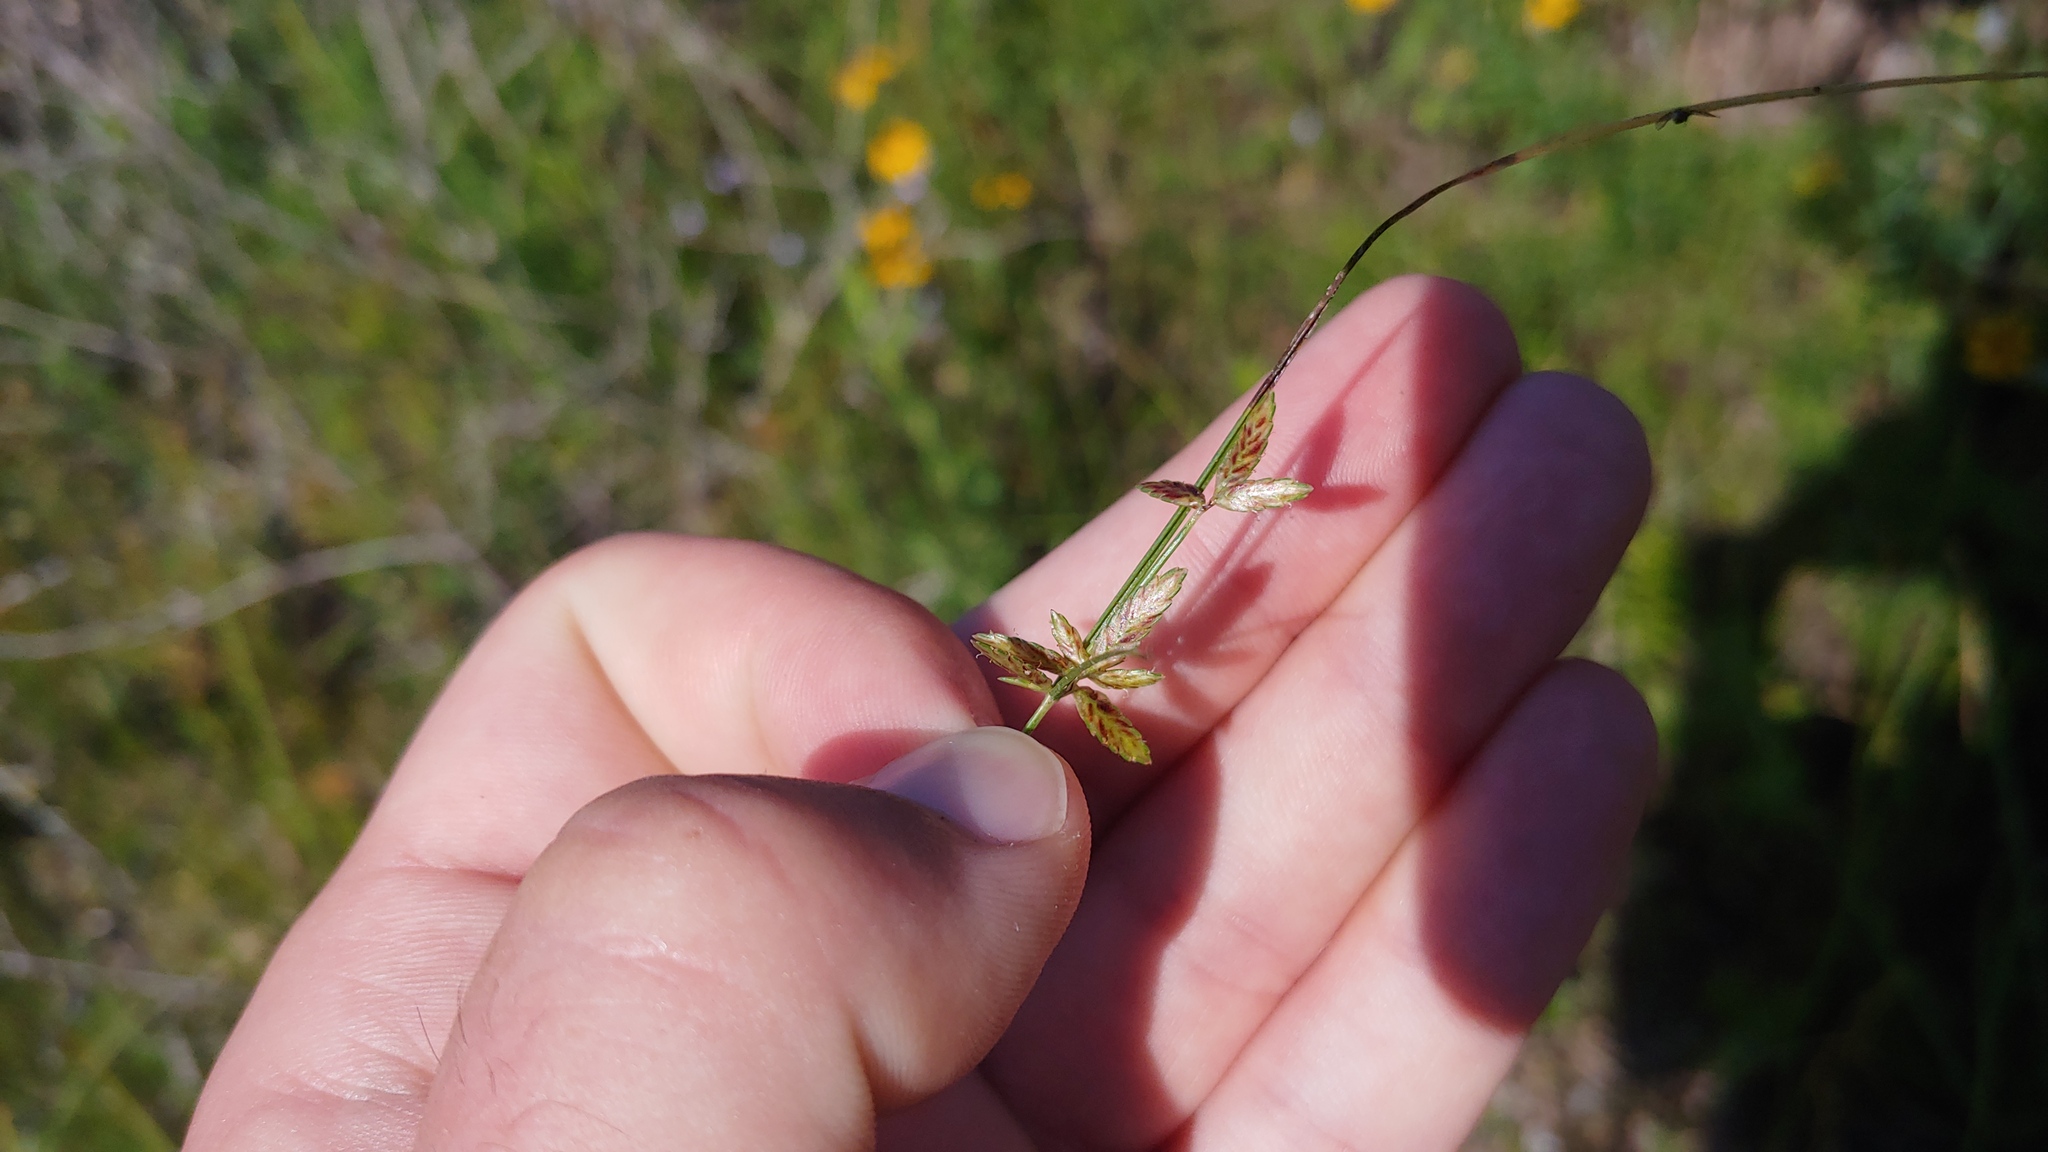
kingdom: Plantae
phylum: Tracheophyta
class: Liliopsida
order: Poales
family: Cyperaceae
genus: Cyperus
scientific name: Cyperus bipartitus
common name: Brook flatsedge
